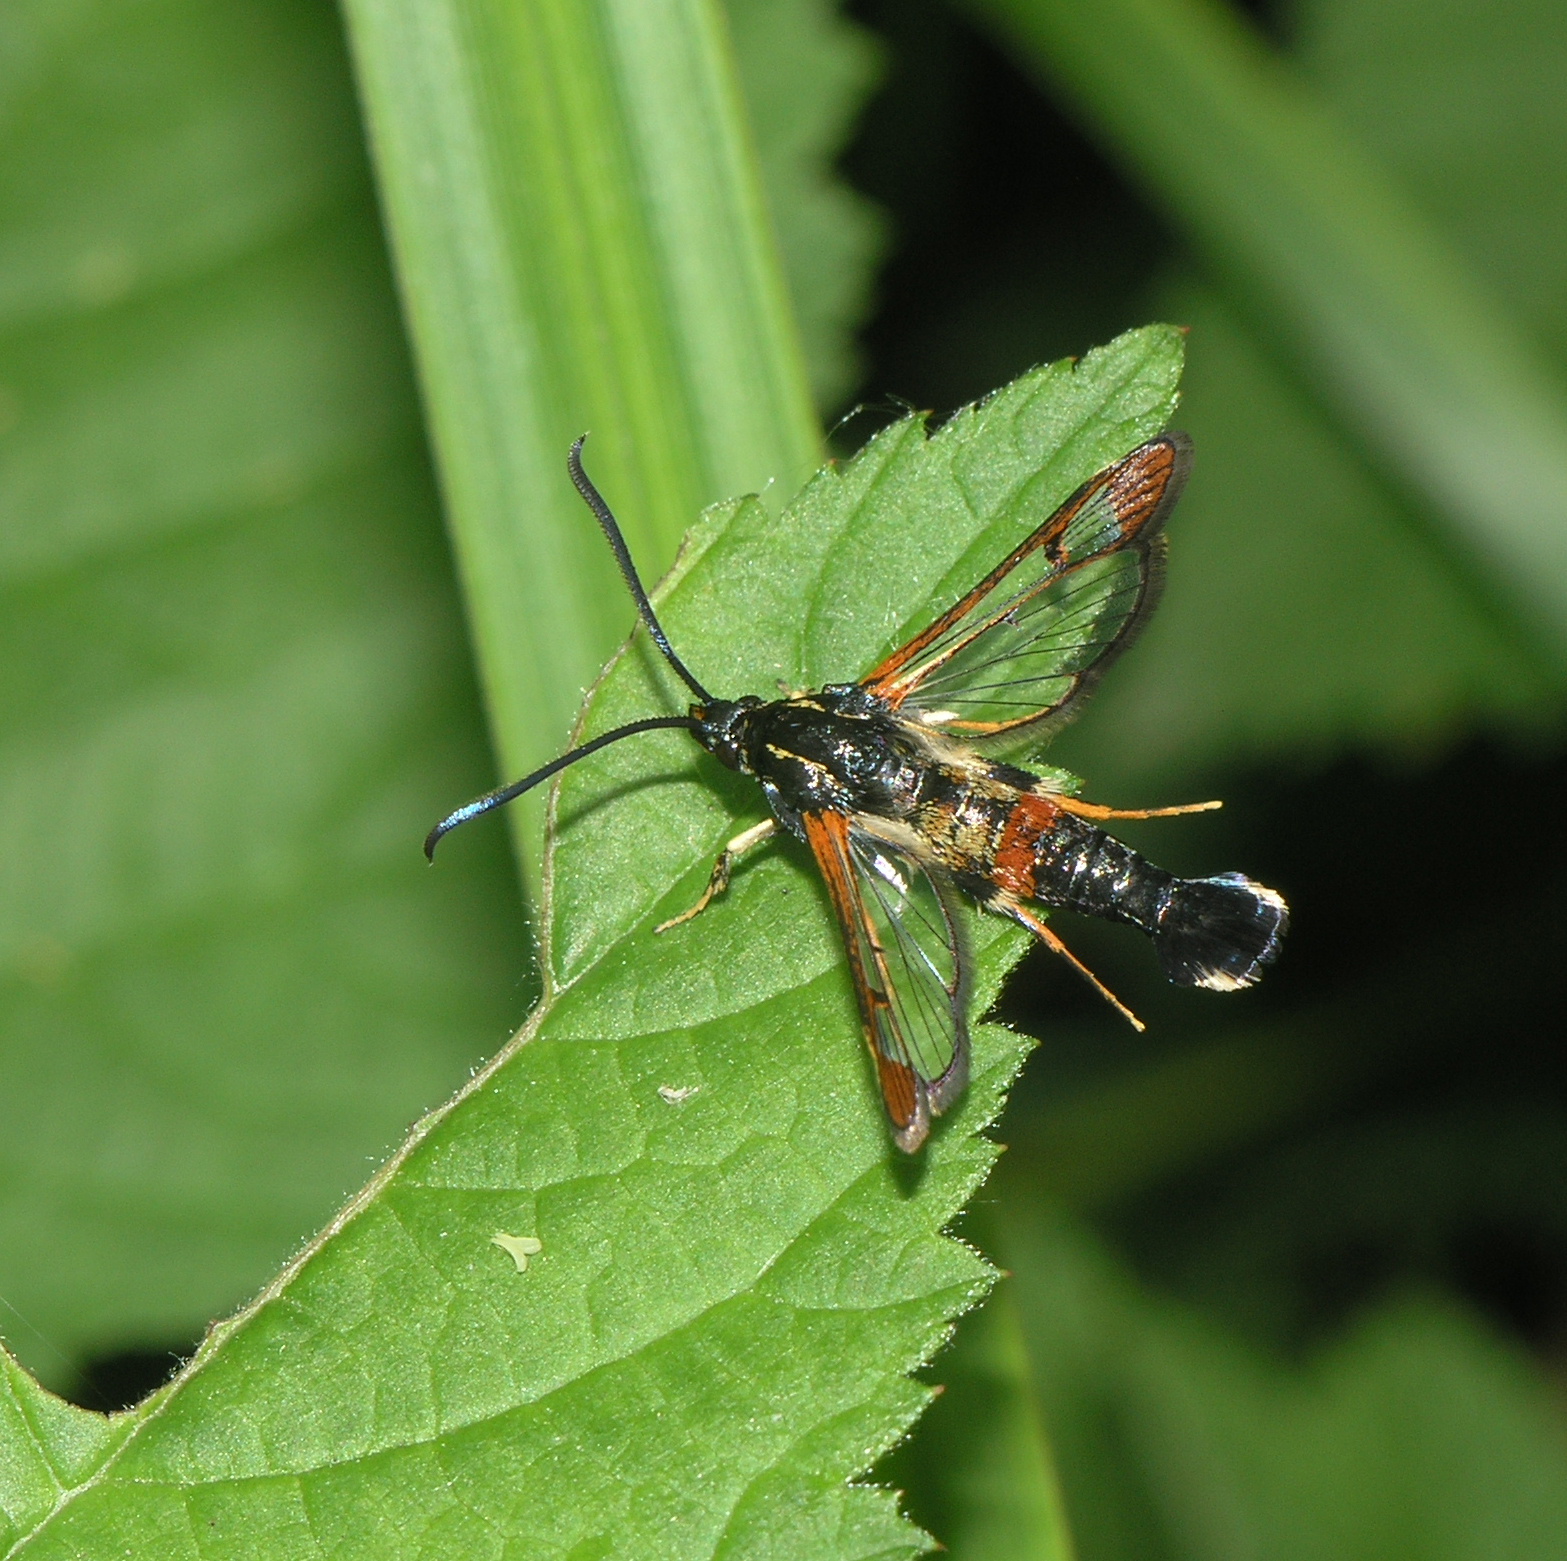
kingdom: Animalia
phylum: Arthropoda
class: Insecta
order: Lepidoptera
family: Sesiidae
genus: Synanthedon
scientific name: Synanthedon formicaeformis
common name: Red-tipped clearwing
